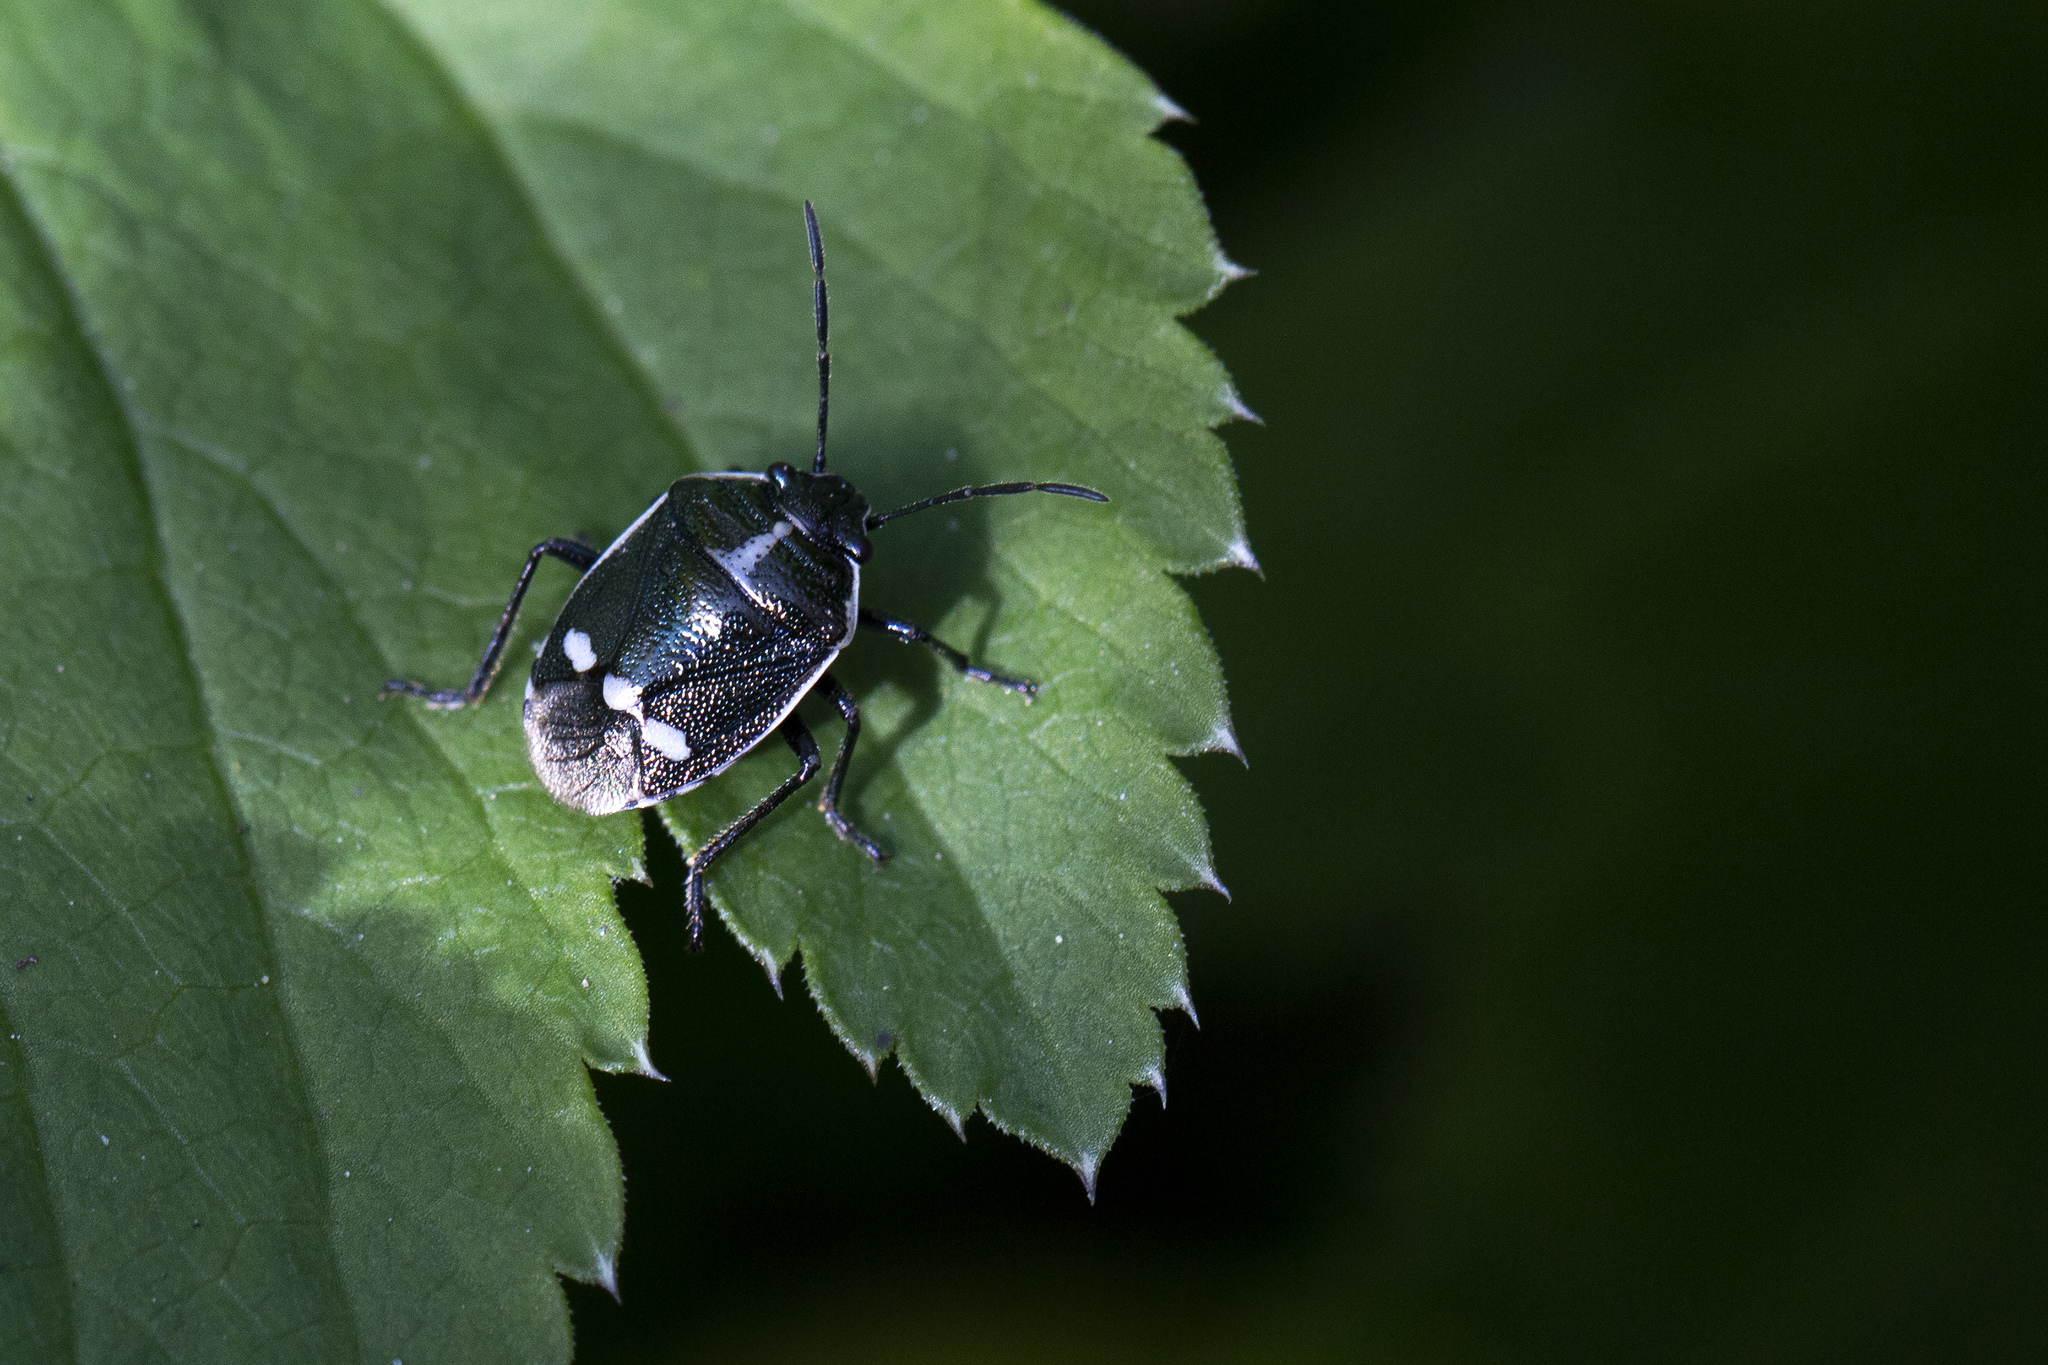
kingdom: Animalia
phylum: Arthropoda
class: Insecta
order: Hemiptera
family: Pentatomidae
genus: Eurydema
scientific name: Eurydema oleracea
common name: Cabbage bug
